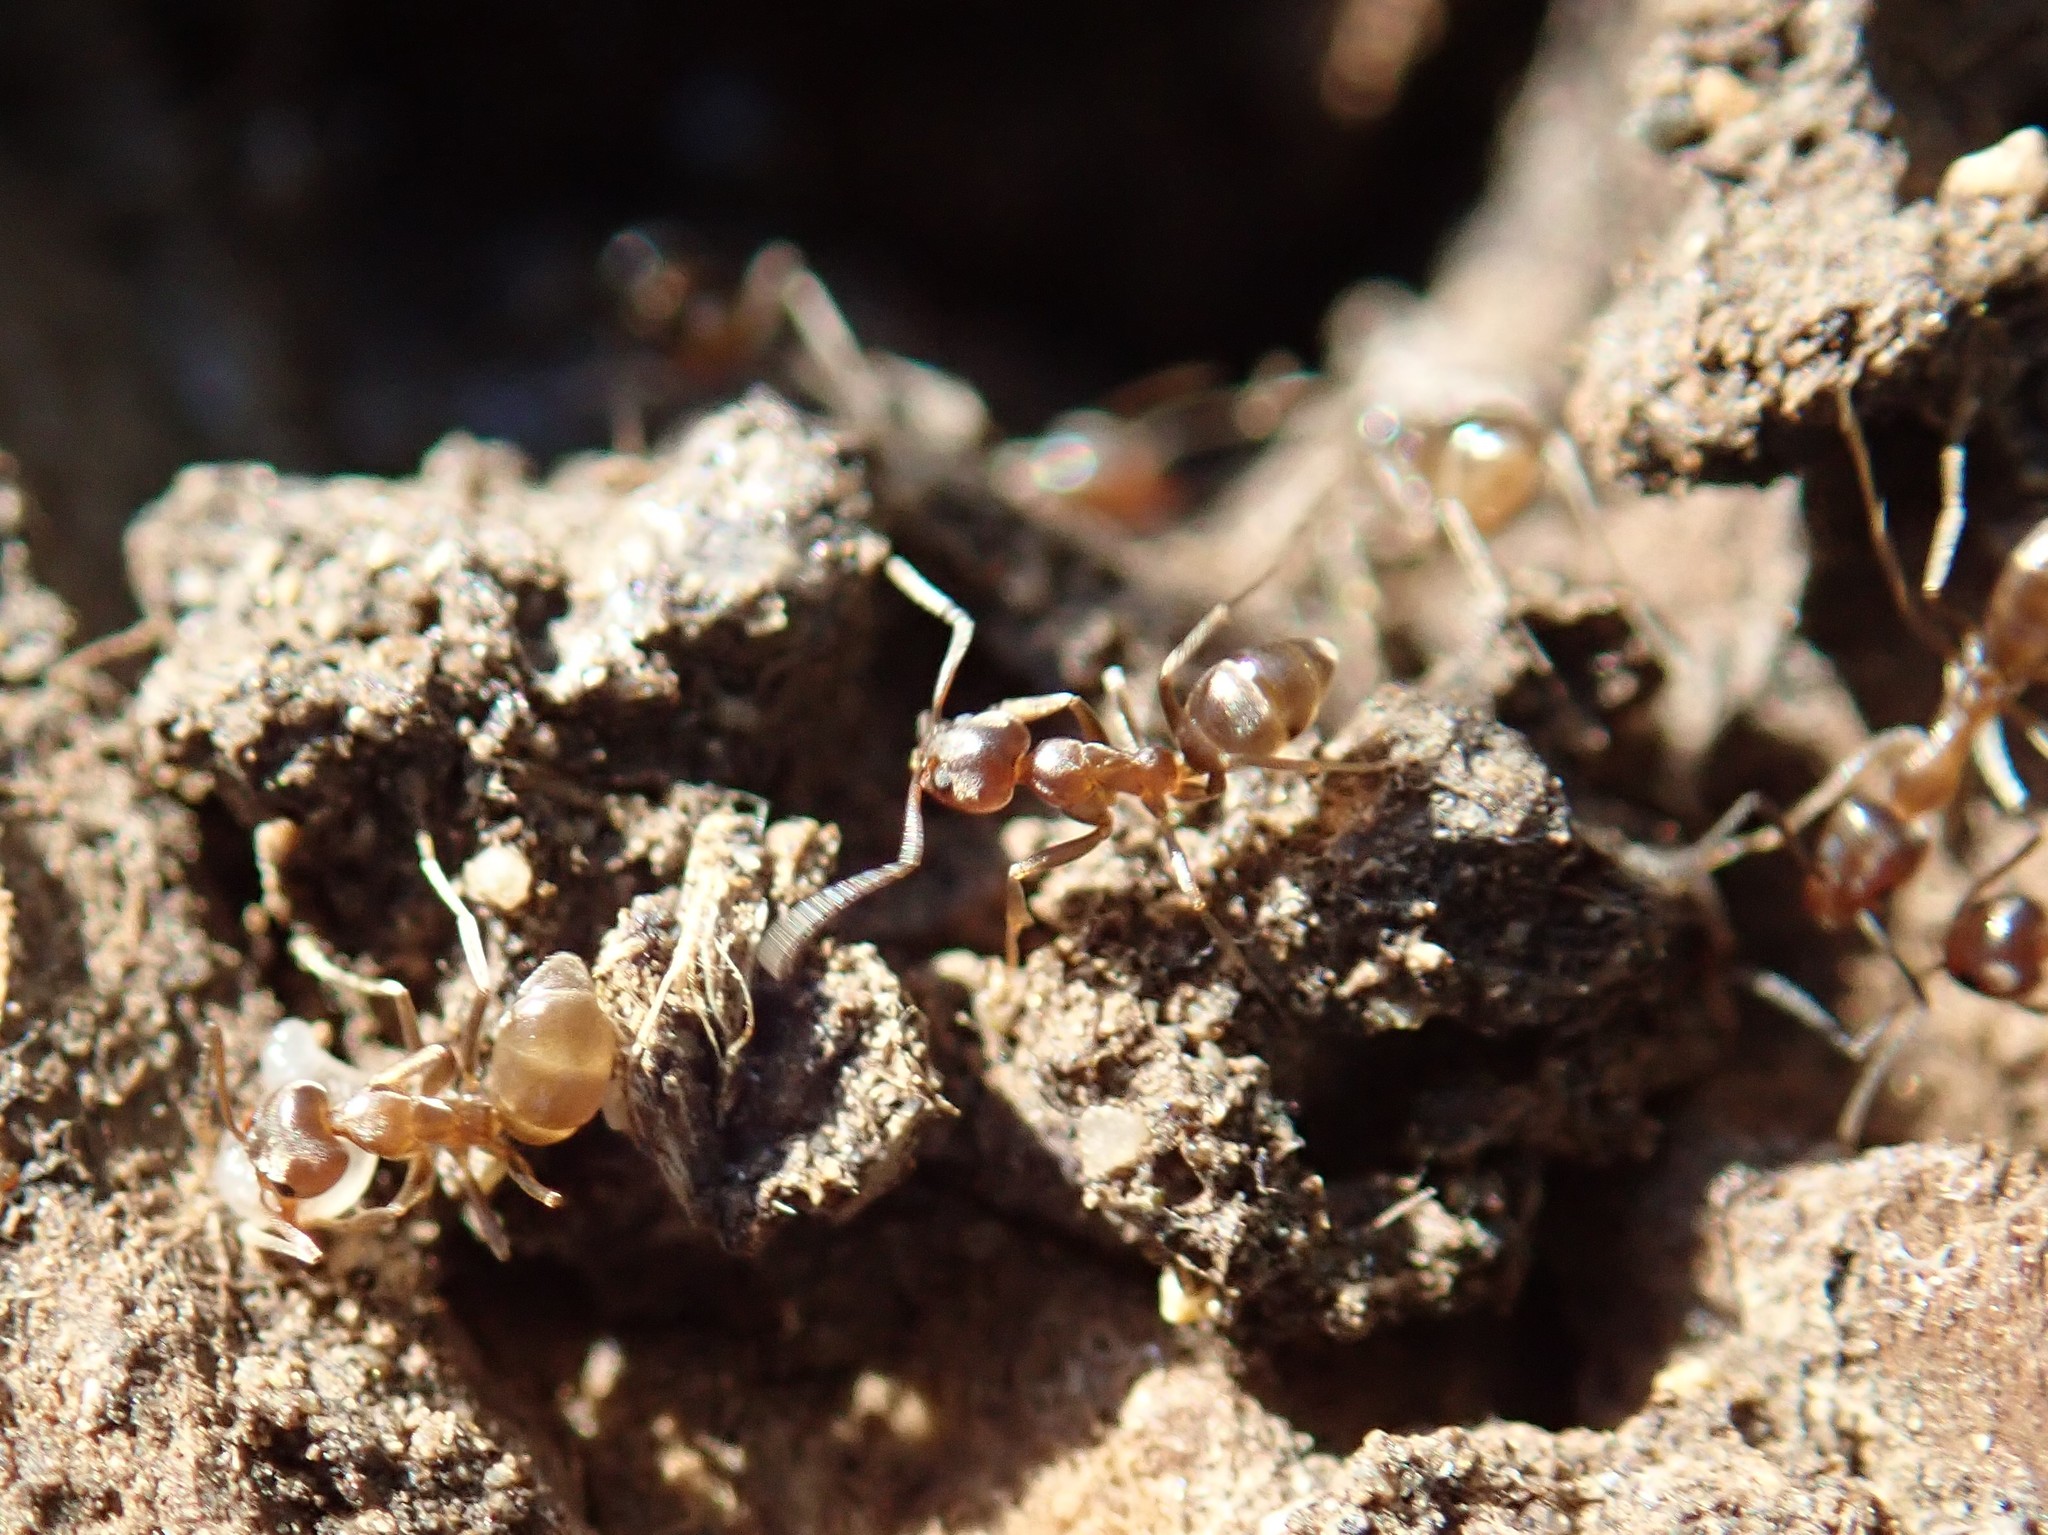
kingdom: Animalia
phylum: Arthropoda
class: Insecta
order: Hymenoptera
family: Formicidae
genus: Linepithema
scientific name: Linepithema humile
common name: Argentine ant
